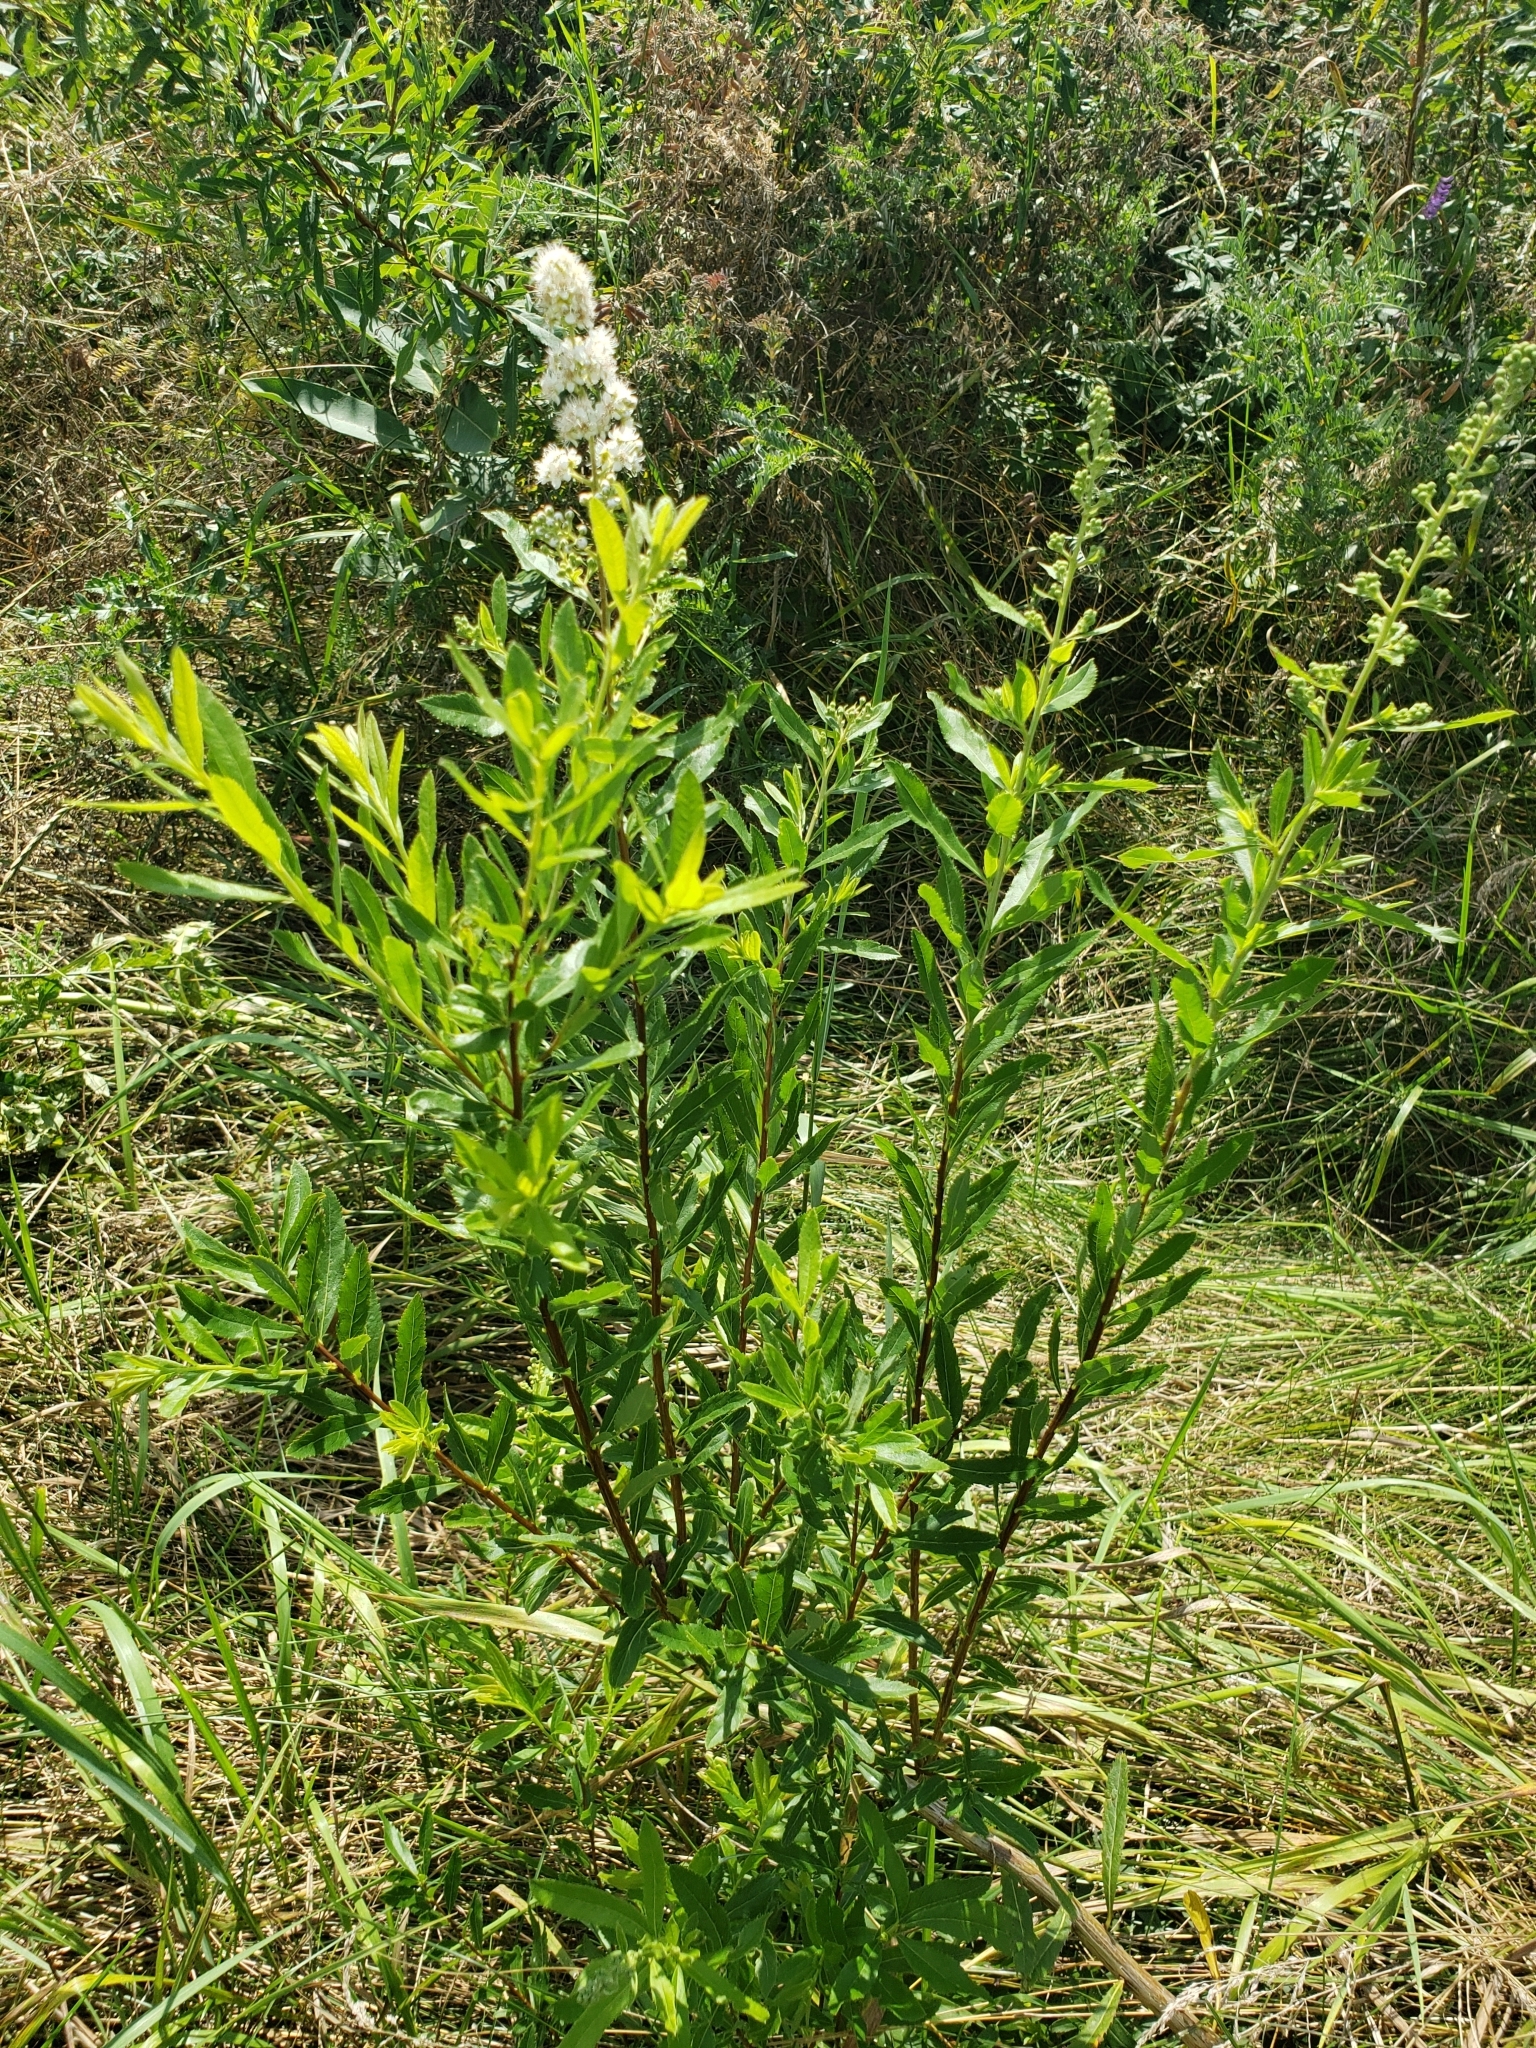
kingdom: Plantae
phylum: Tracheophyta
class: Magnoliopsida
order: Rosales
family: Rosaceae
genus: Spiraea
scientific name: Spiraea alba
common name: Pale bridewort
